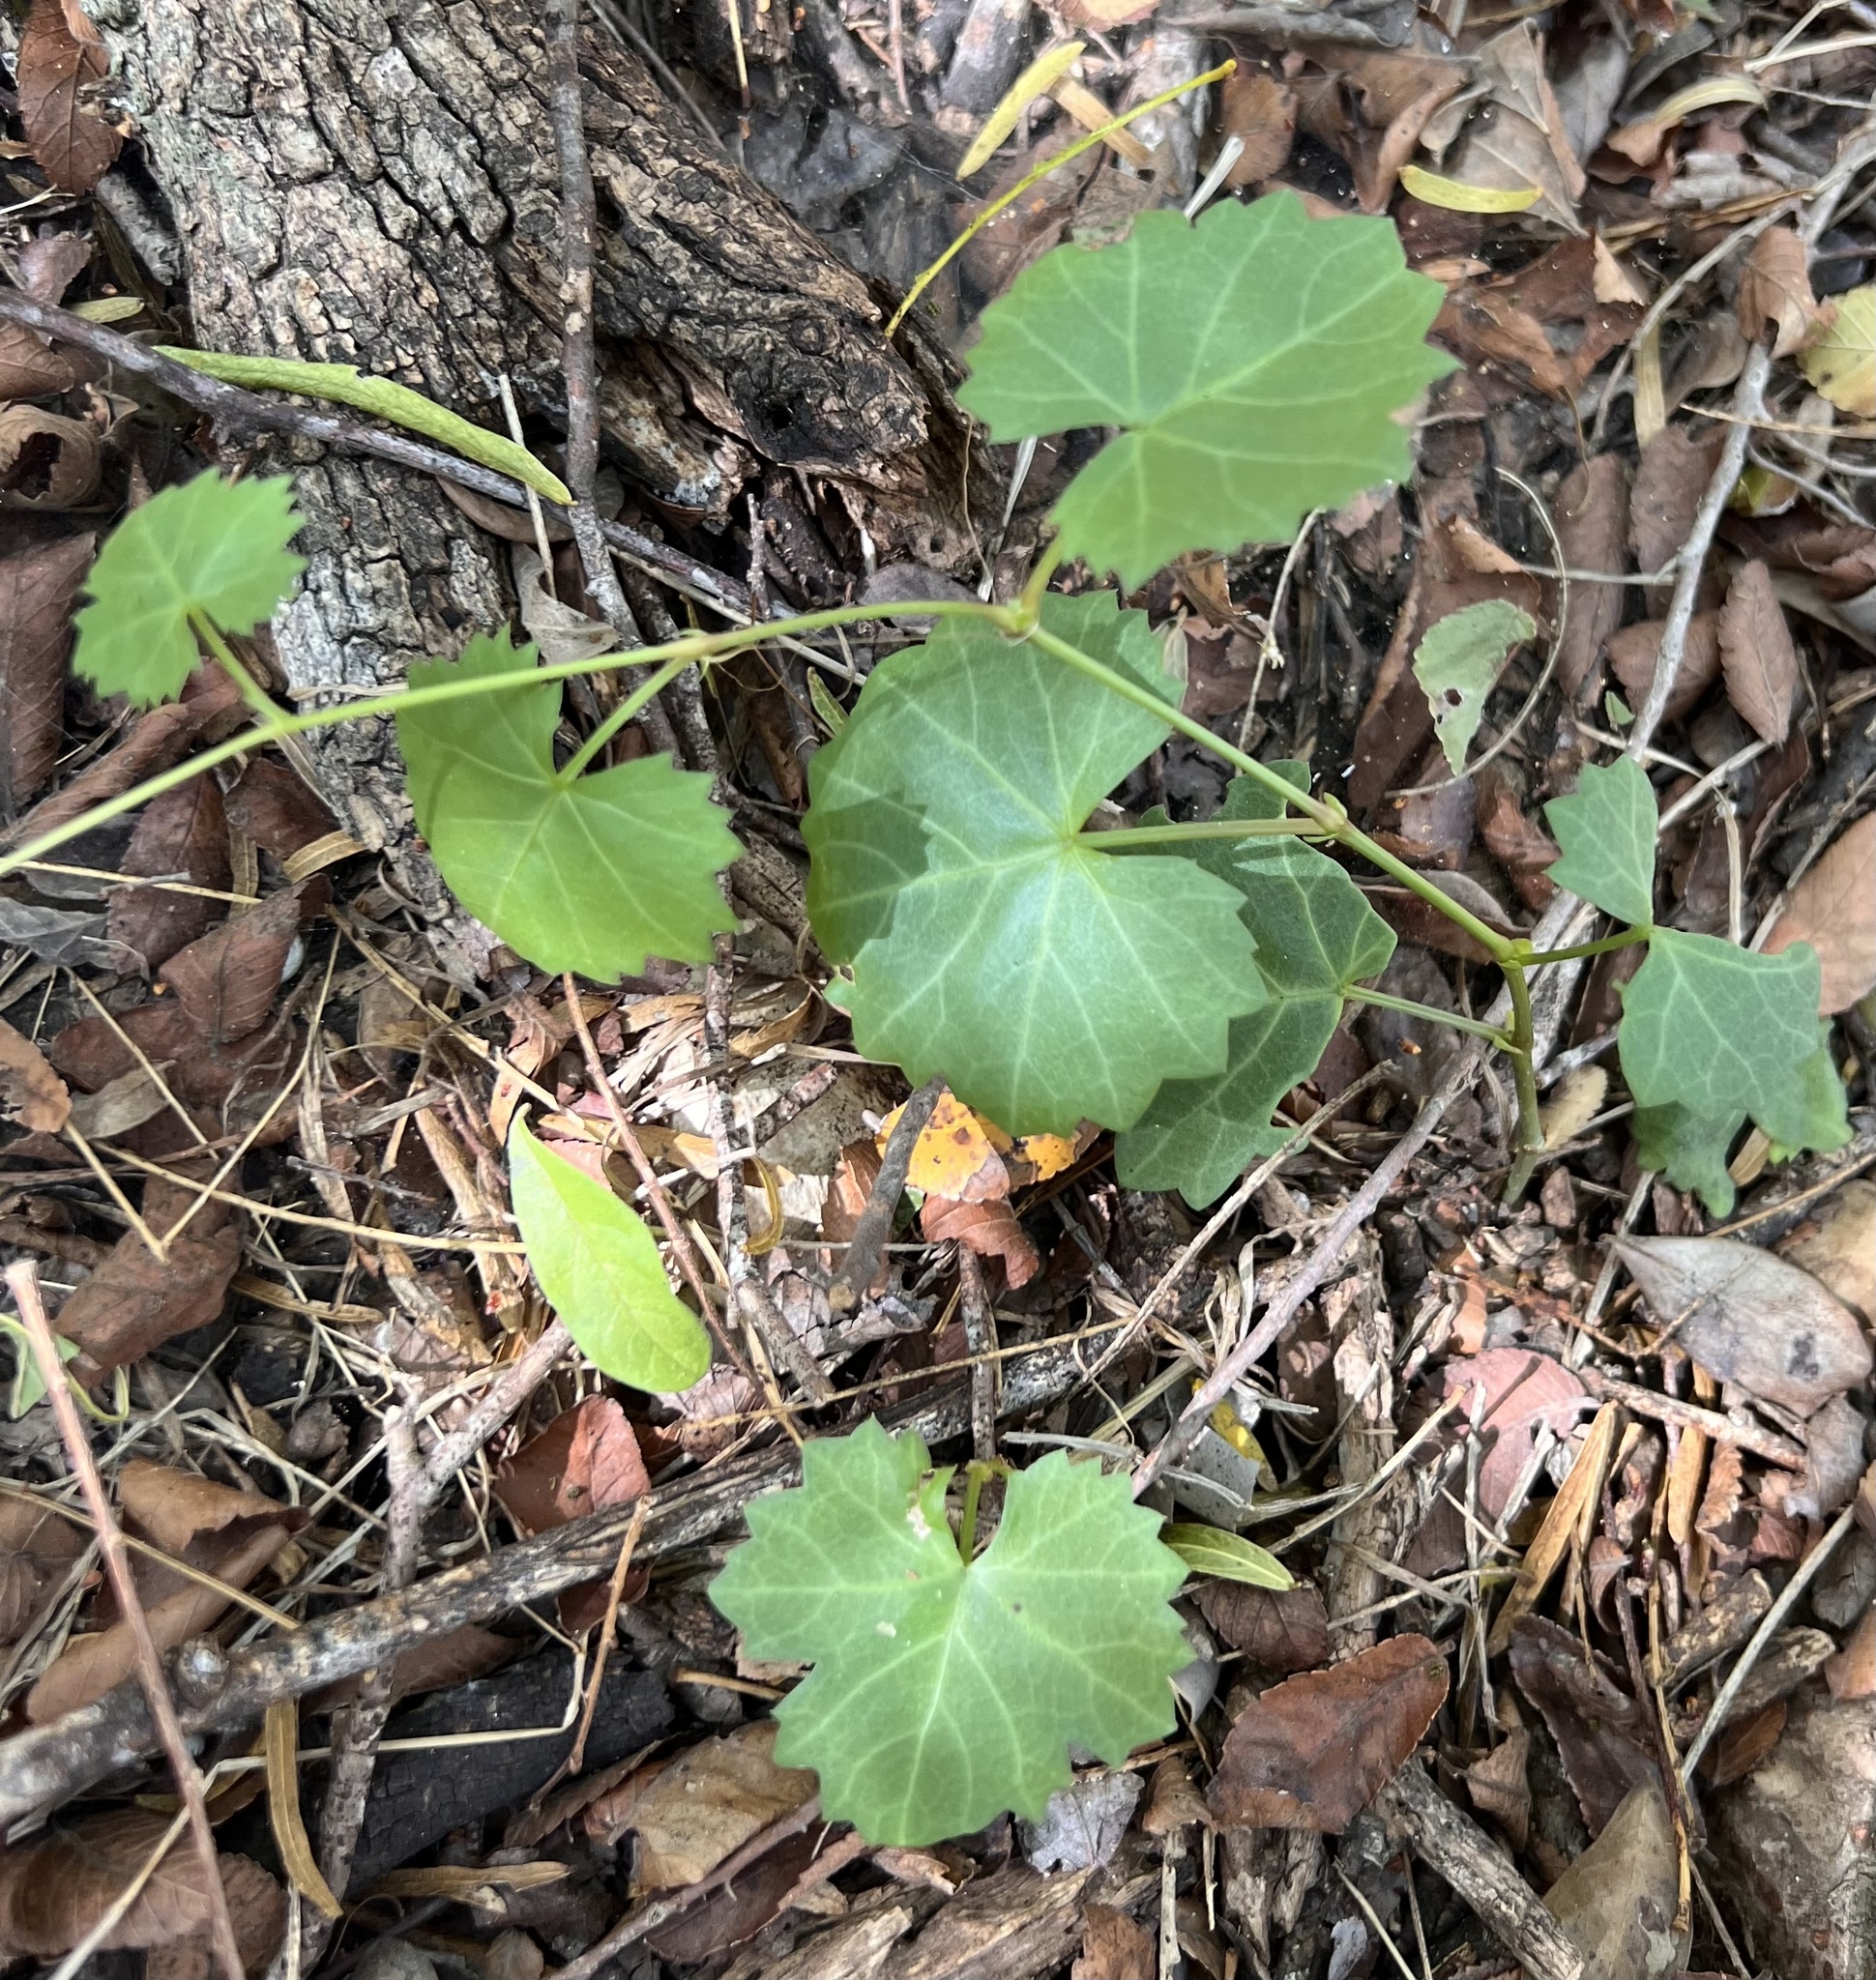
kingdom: Plantae
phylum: Tracheophyta
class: Magnoliopsida
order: Vitales
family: Vitaceae
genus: Cissus
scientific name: Cissus trifoliata
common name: Vine-sorrel
